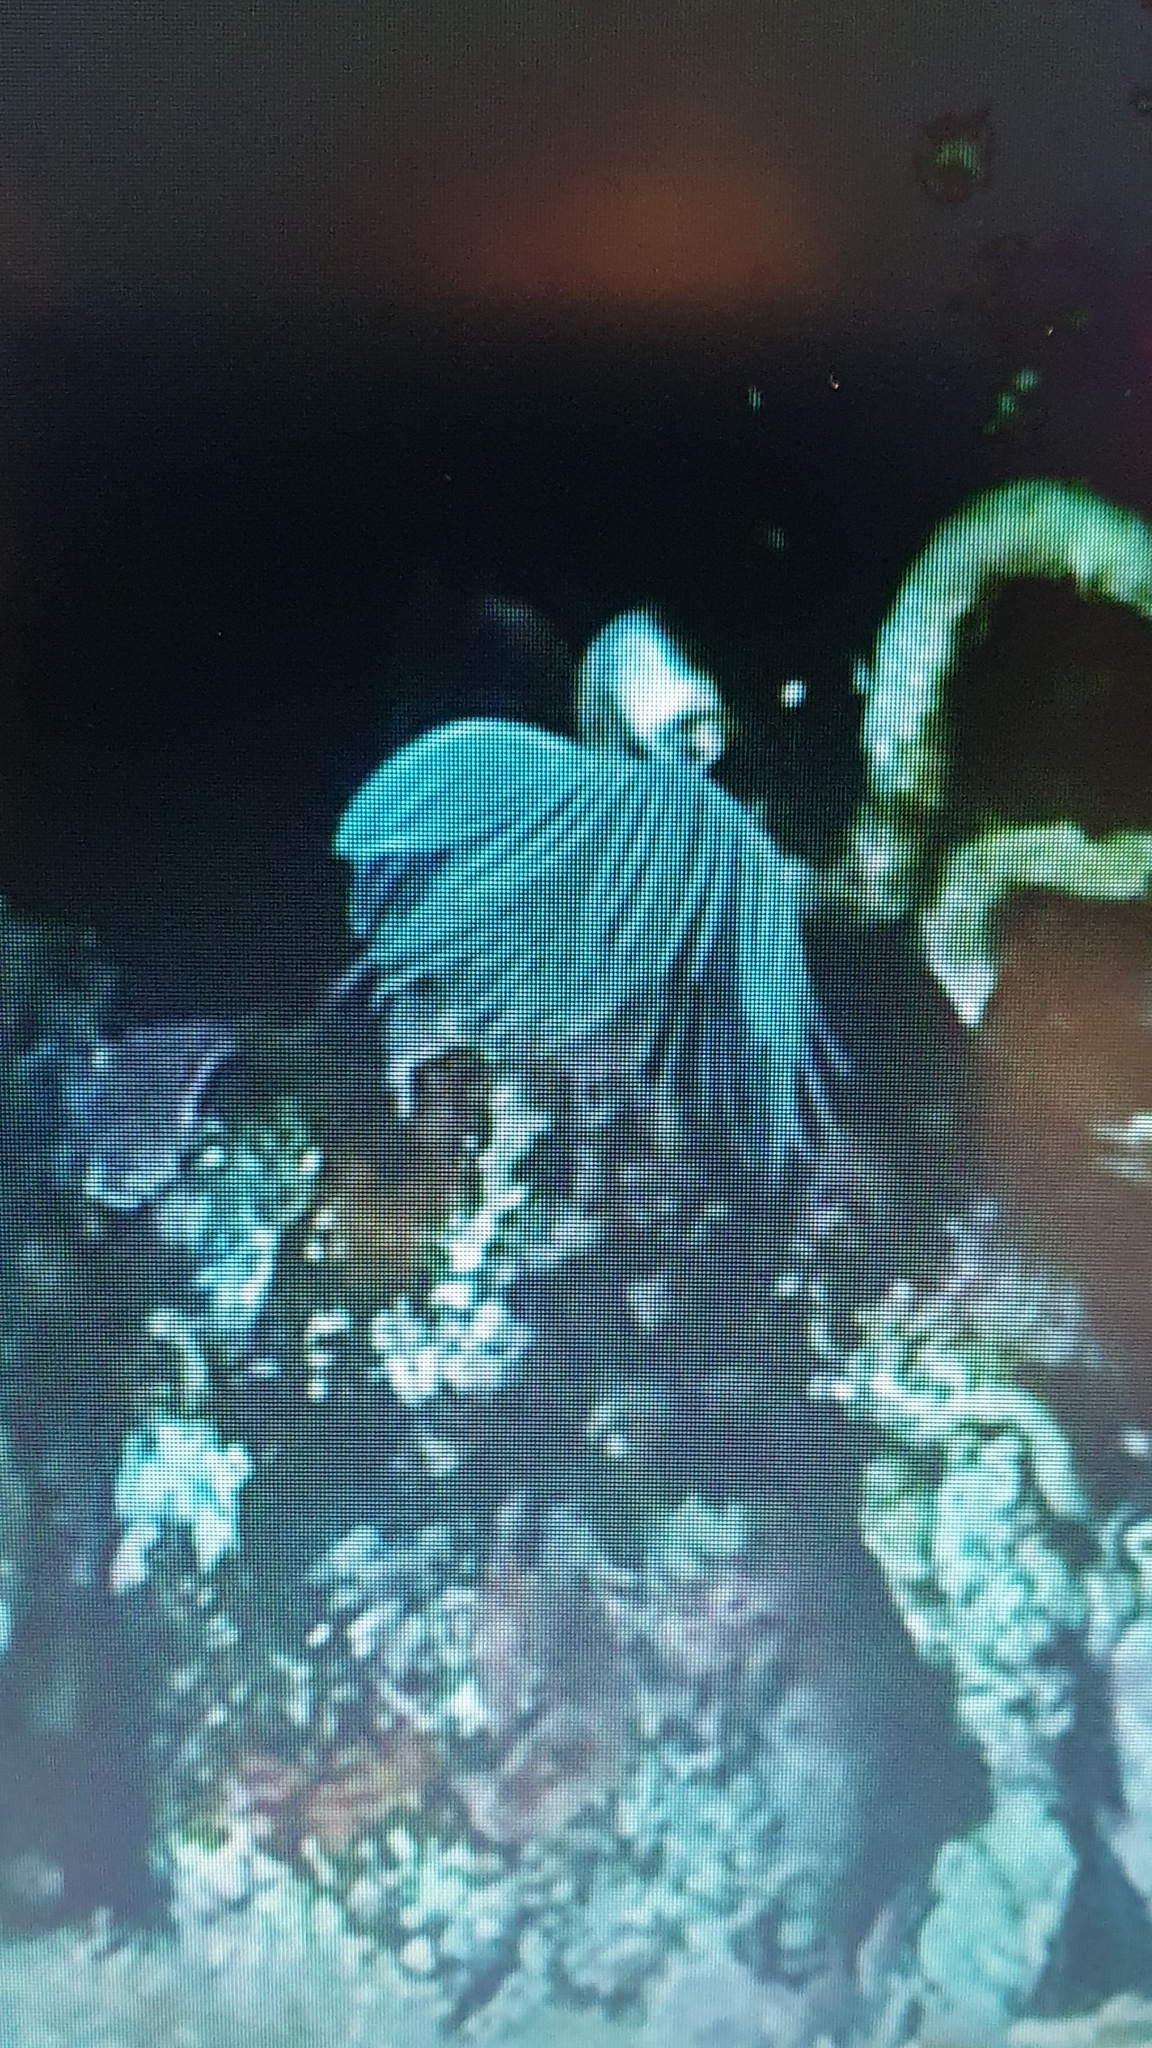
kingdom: Animalia
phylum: Annelida
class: Polychaeta
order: Sabellida
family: Serpulidae
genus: Protula
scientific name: Protula tubularia
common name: Red-spotted horseshoe
